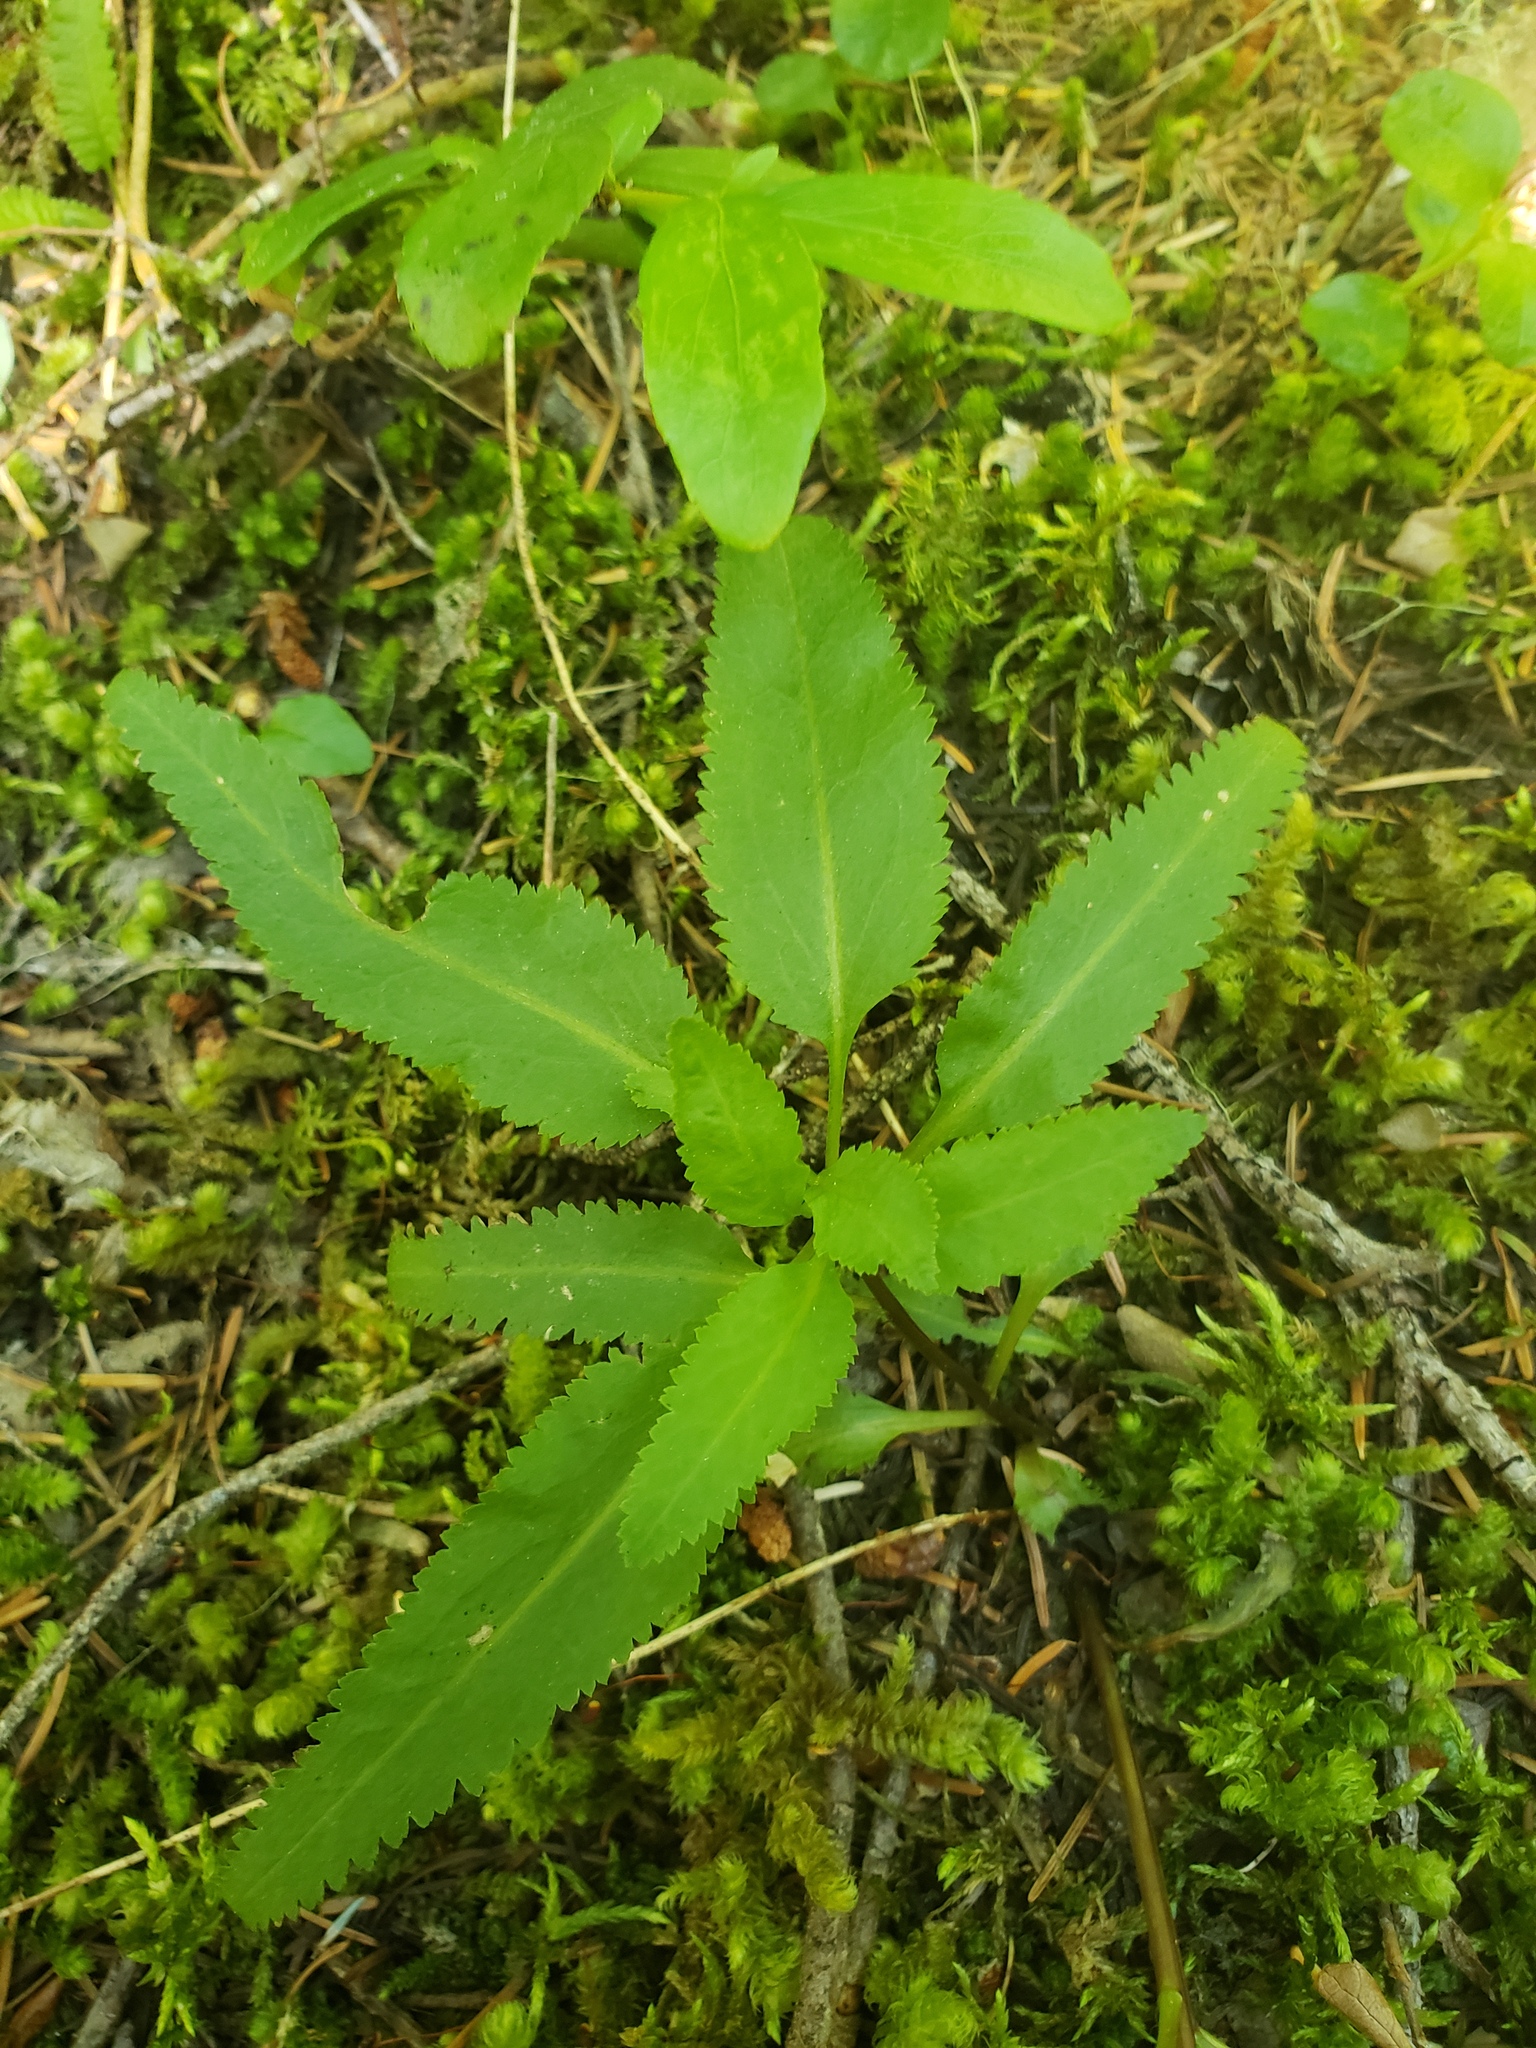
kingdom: Plantae
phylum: Tracheophyta
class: Magnoliopsida
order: Lamiales
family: Orobanchaceae
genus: Pedicularis
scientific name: Pedicularis racemosa
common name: Leafy lousewort
